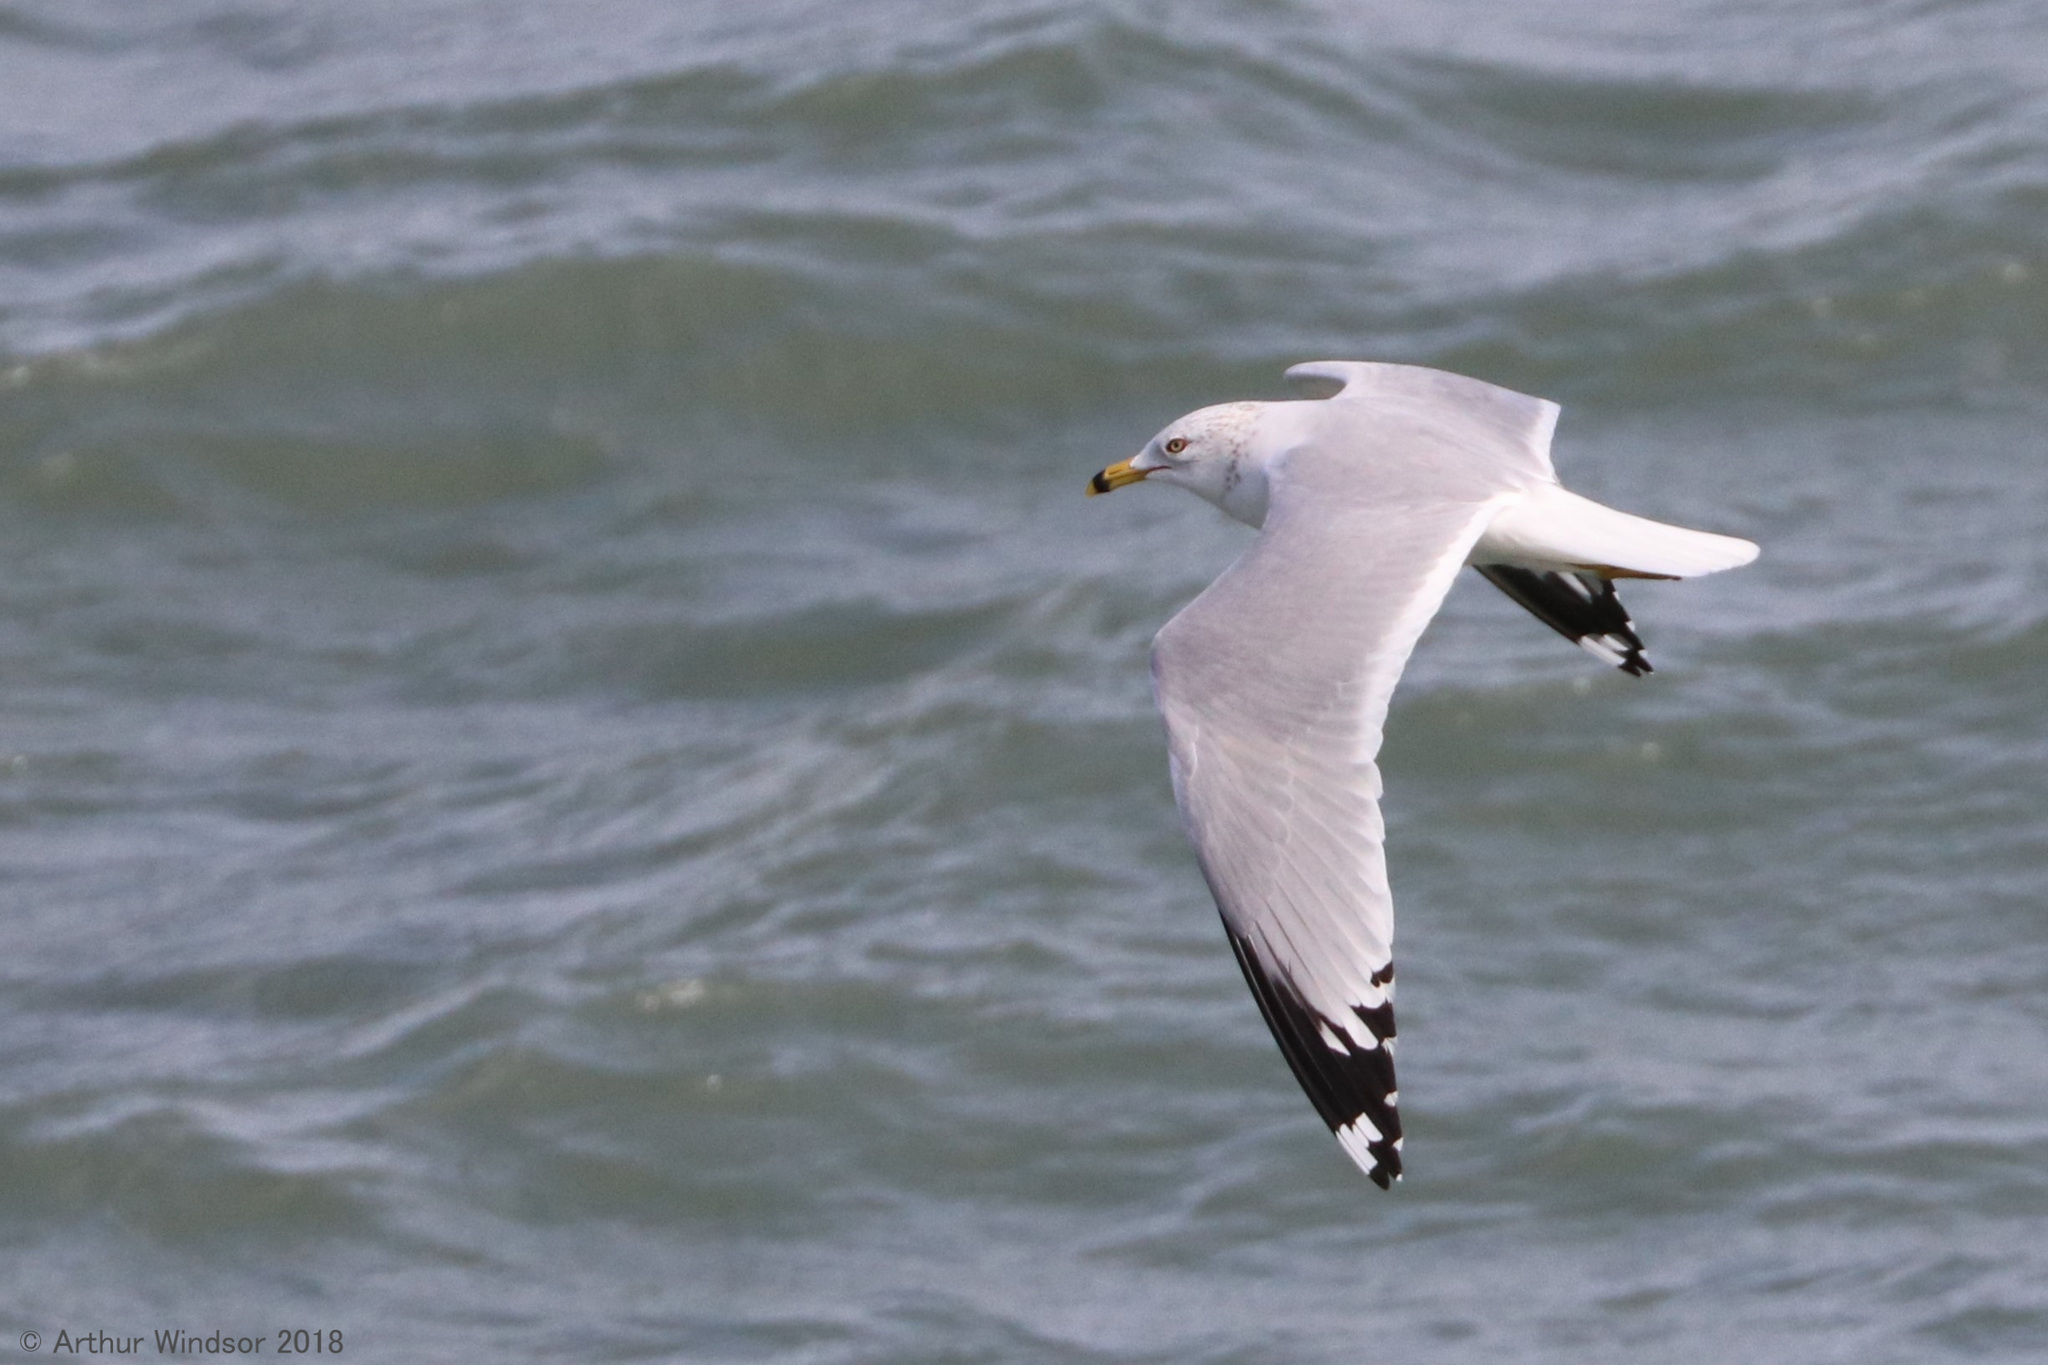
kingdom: Animalia
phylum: Chordata
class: Aves
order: Charadriiformes
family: Laridae
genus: Larus
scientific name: Larus delawarensis
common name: Ring-billed gull
